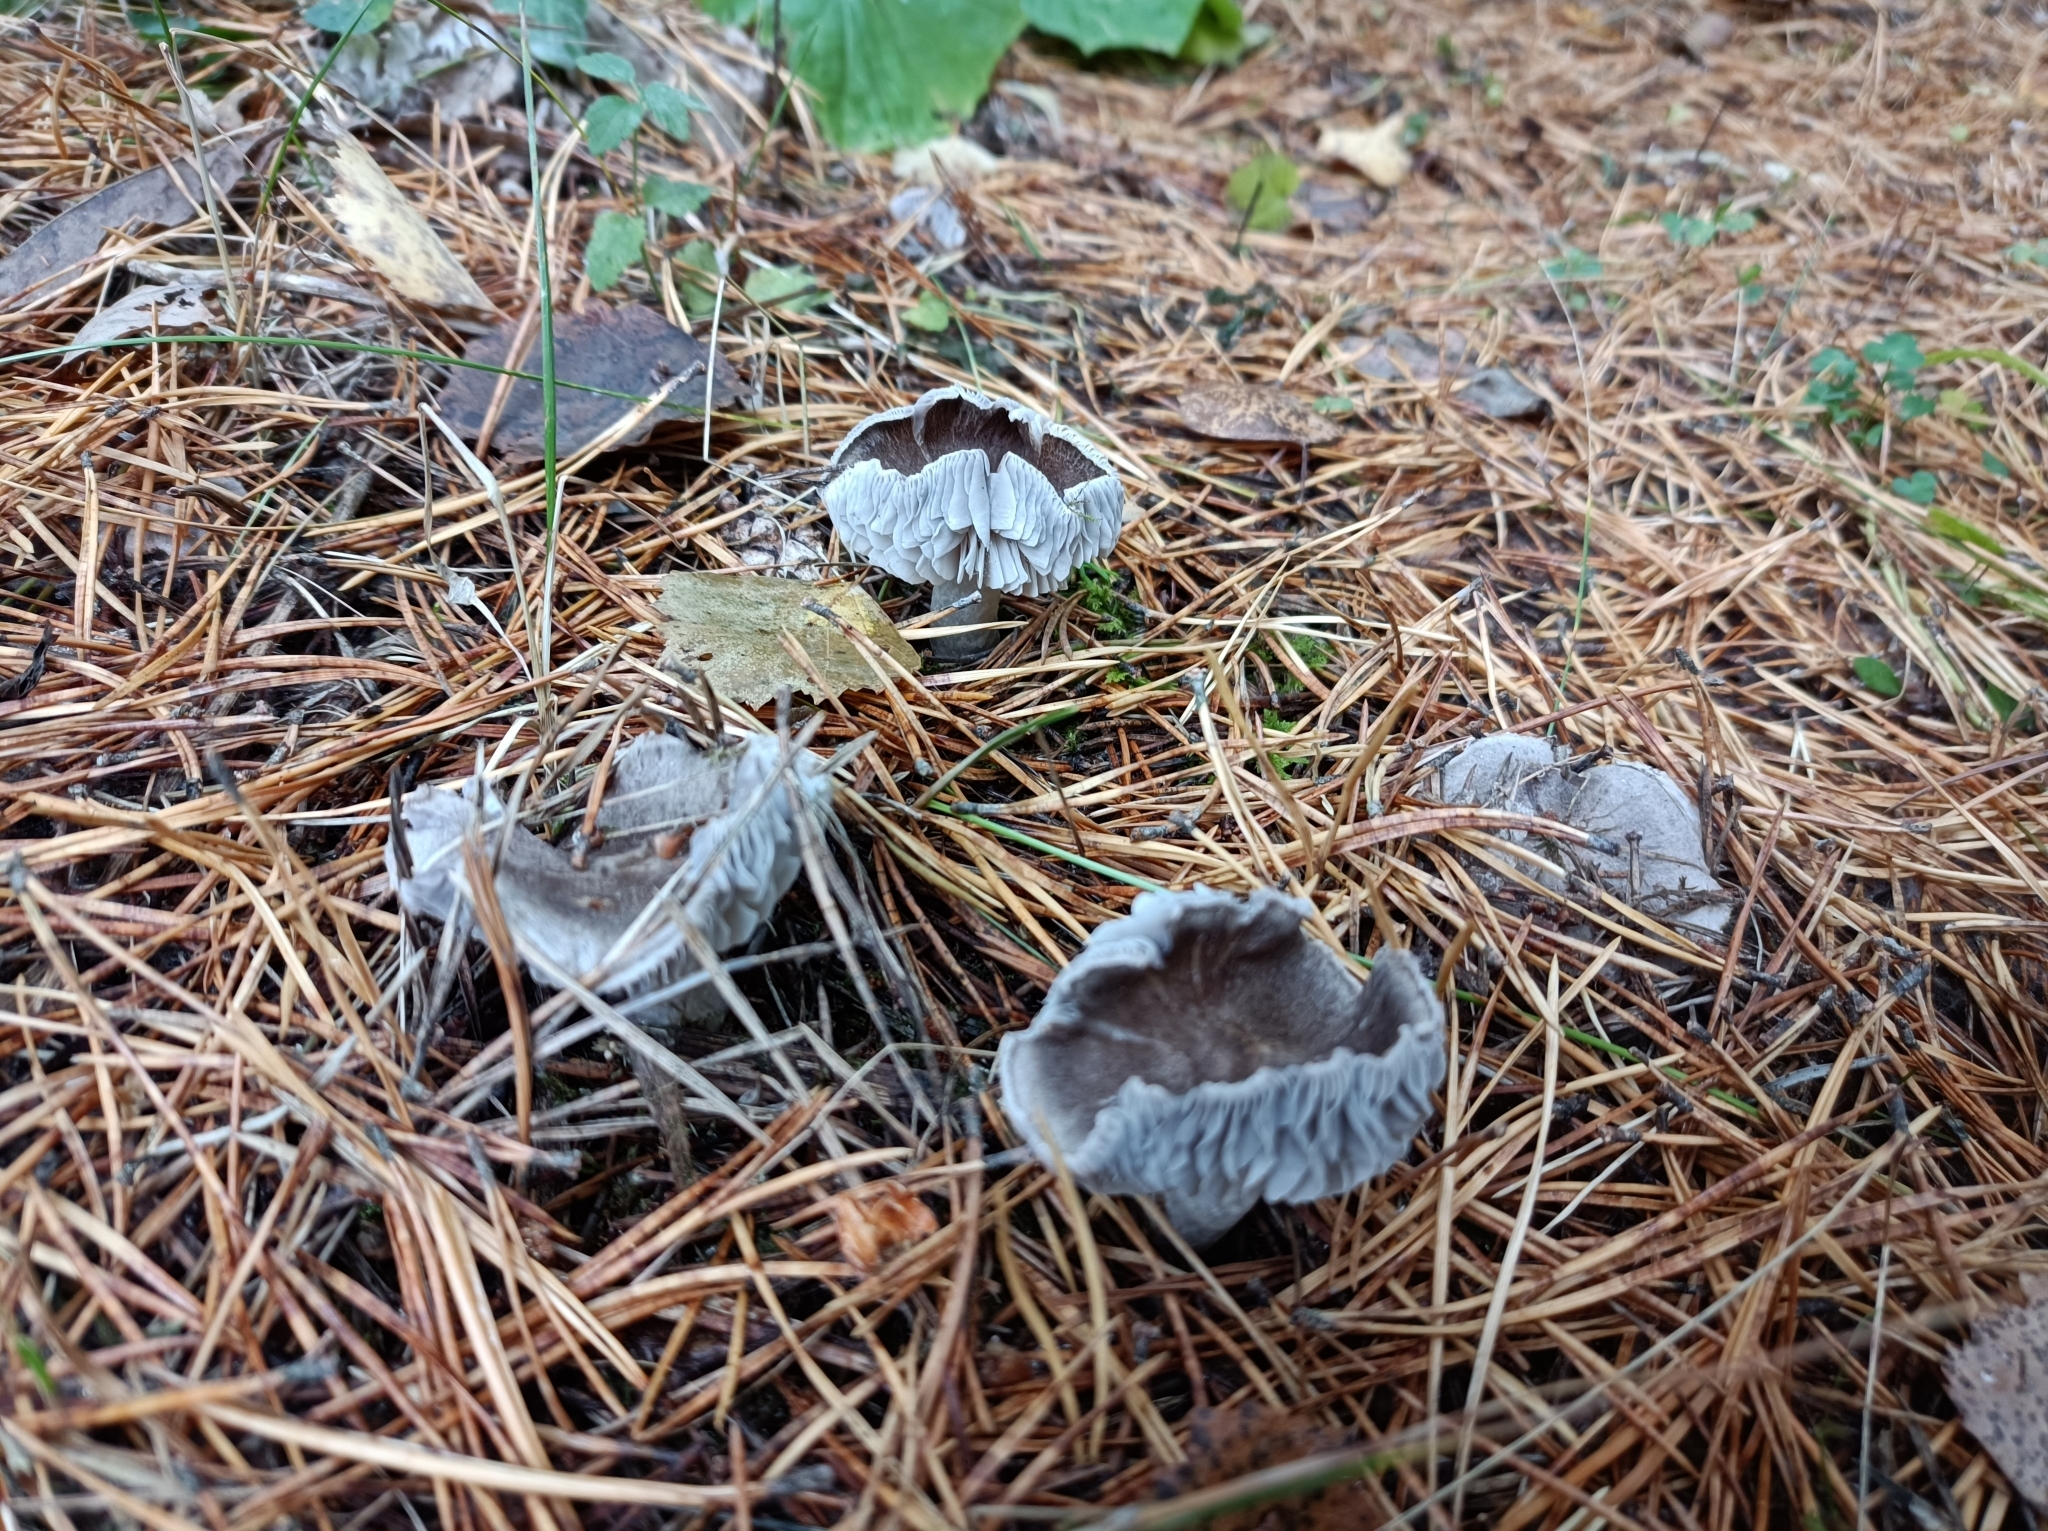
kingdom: Fungi
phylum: Basidiomycota
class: Agaricomycetes
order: Agaricales
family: Tricholomataceae
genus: Tricholoma
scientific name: Tricholoma terreum
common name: Grey knight
